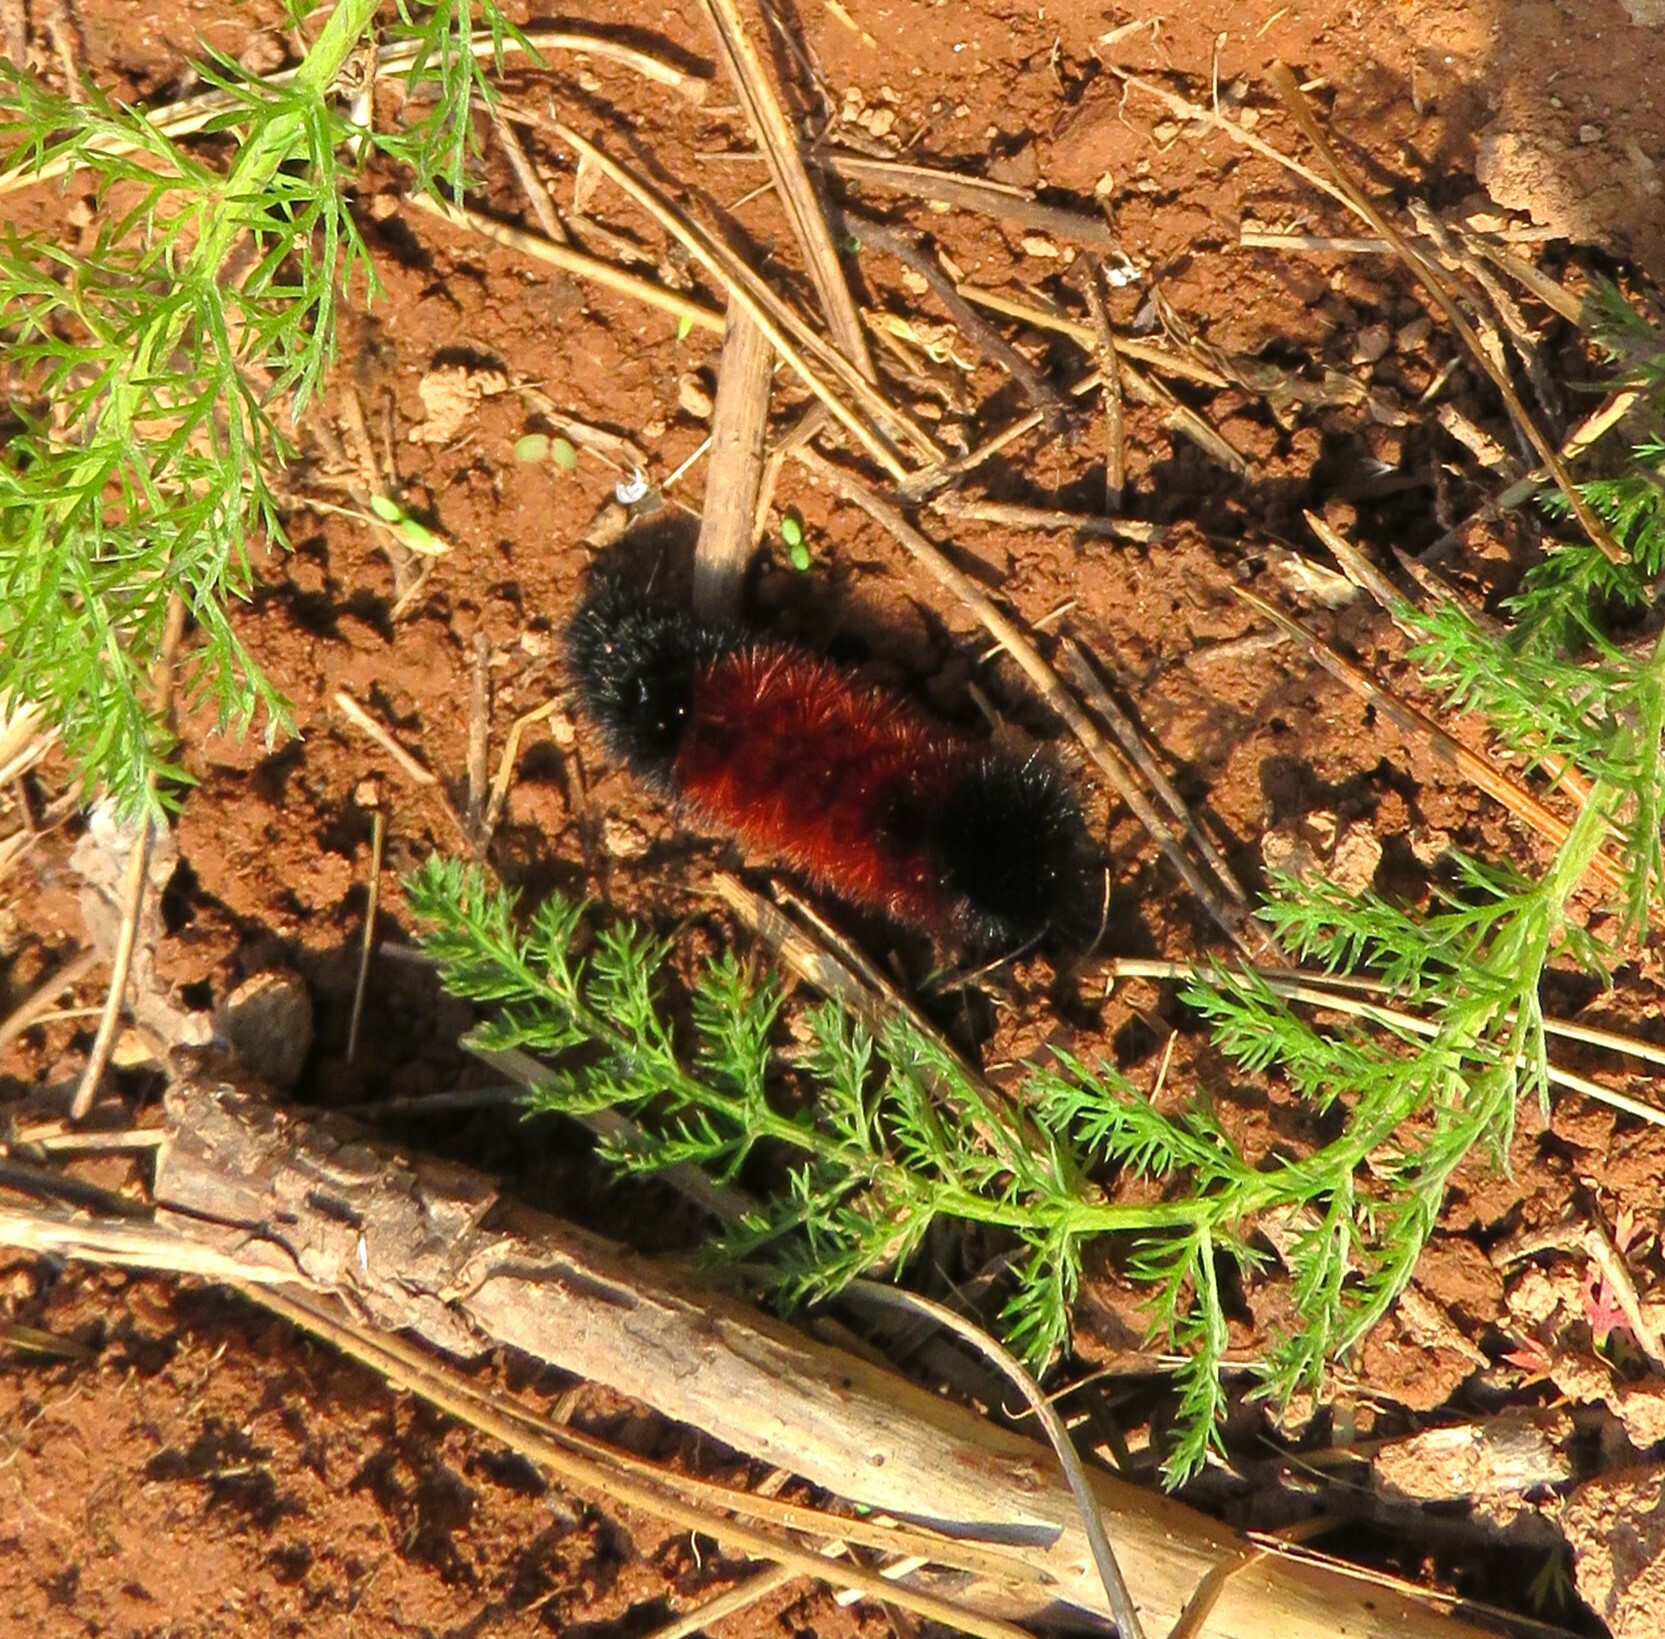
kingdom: Animalia
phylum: Arthropoda
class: Insecta
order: Lepidoptera
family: Erebidae
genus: Pyrrharctia
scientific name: Pyrrharctia isabella
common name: Isabella tiger moth
